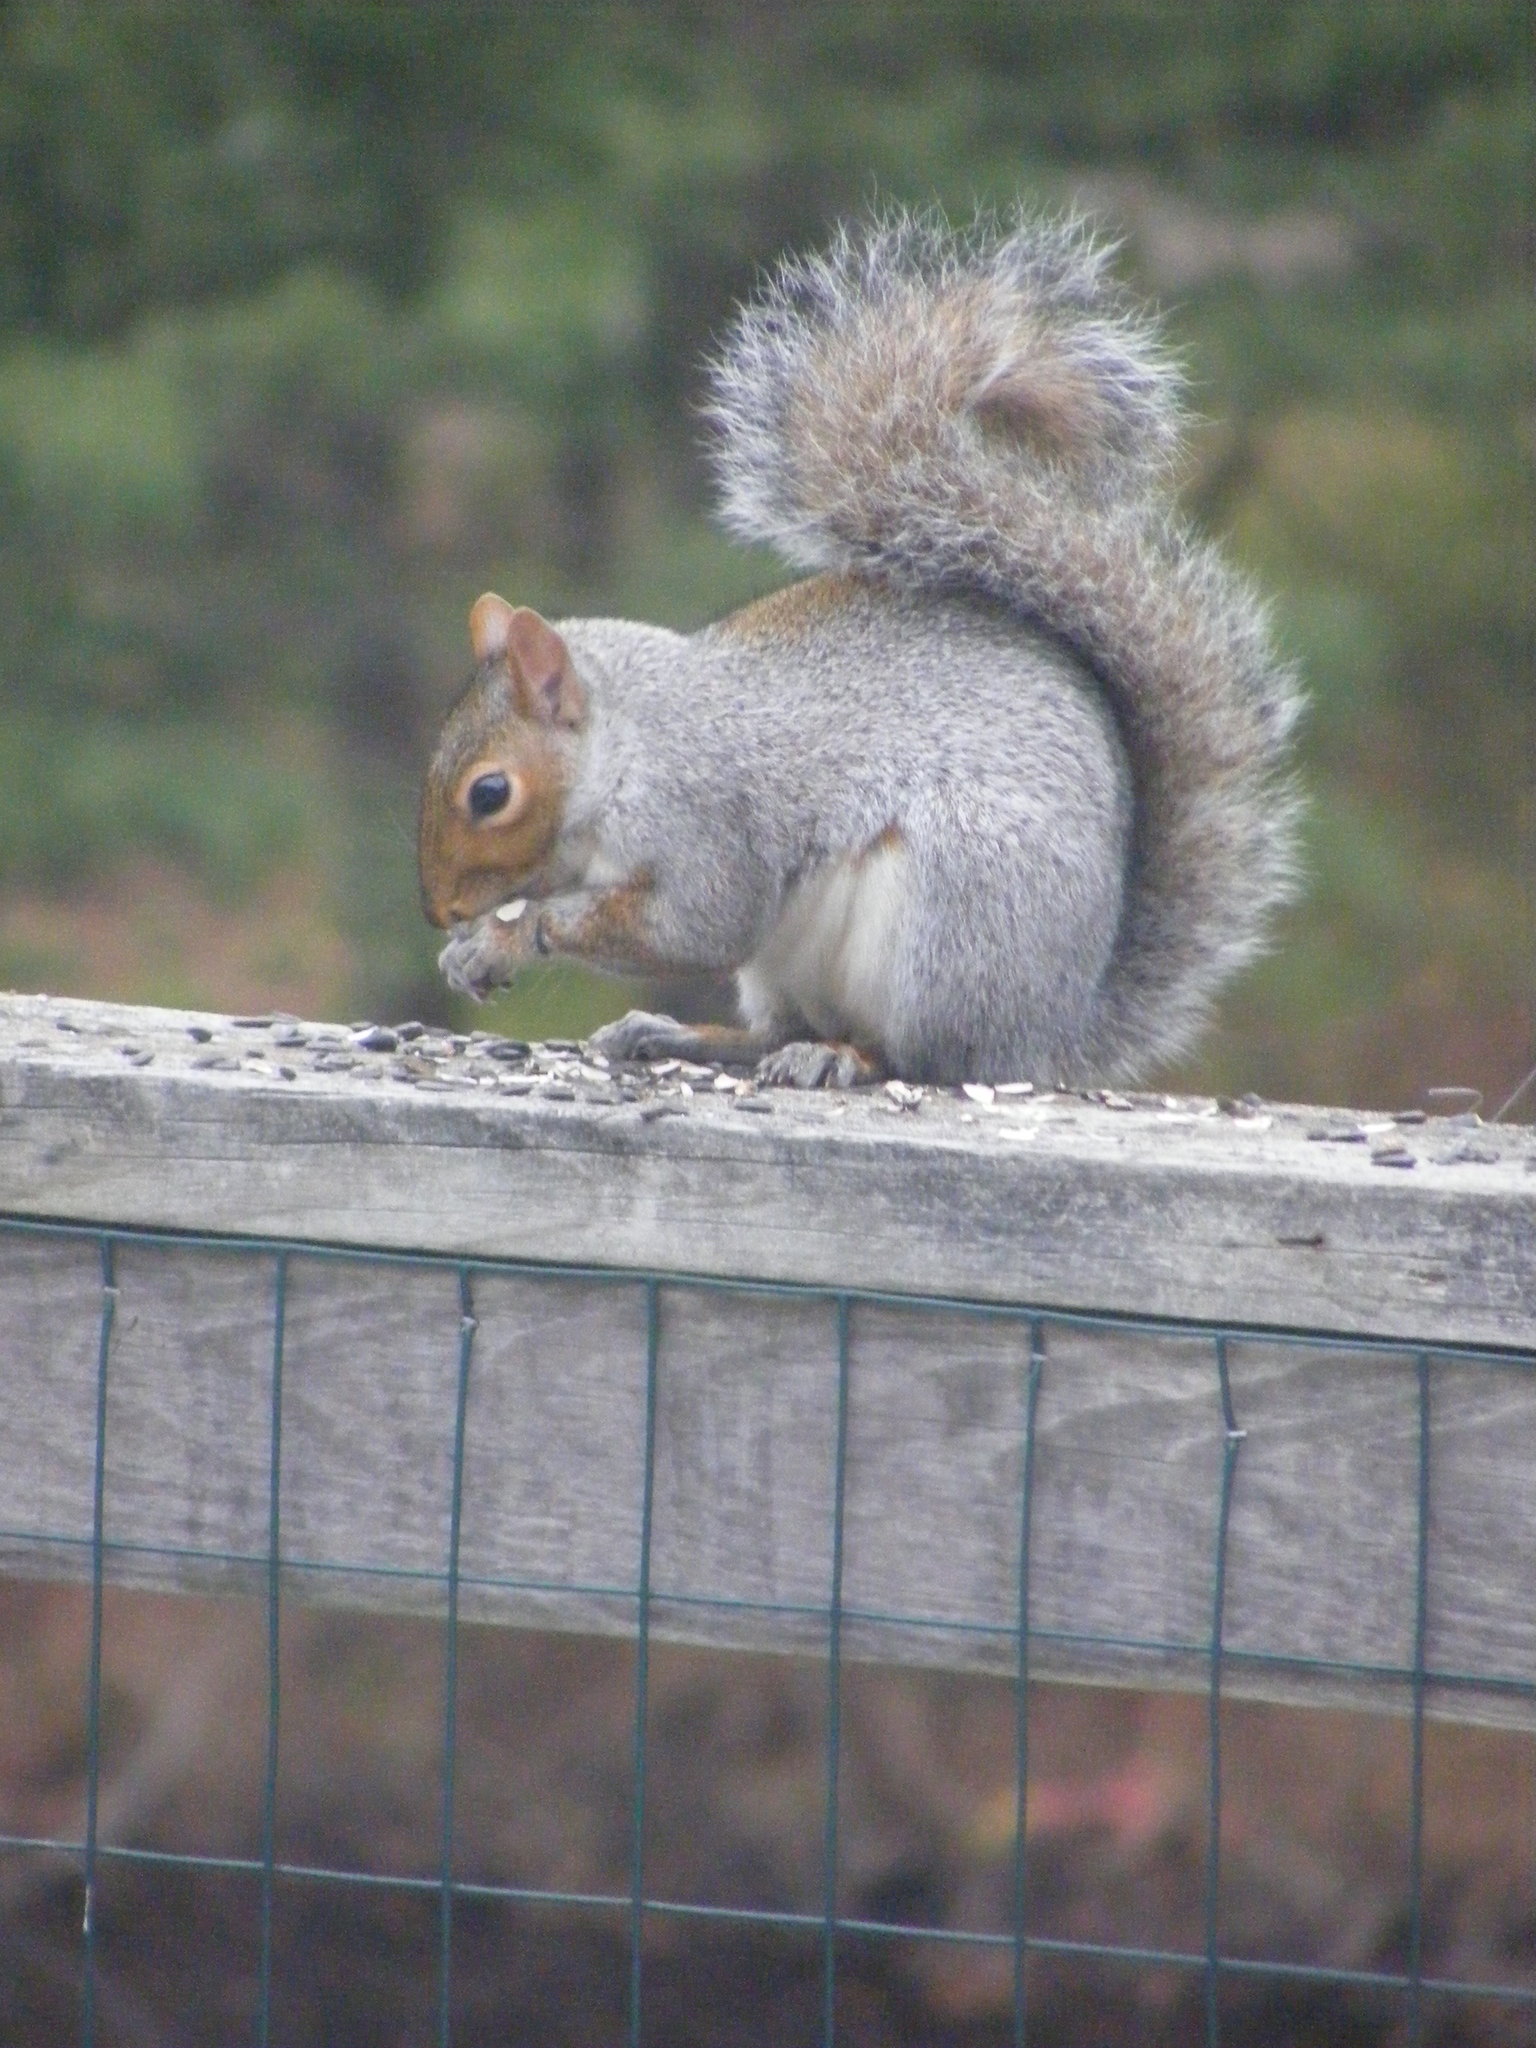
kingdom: Animalia
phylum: Chordata
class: Mammalia
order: Rodentia
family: Sciuridae
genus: Sciurus
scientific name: Sciurus carolinensis
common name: Eastern gray squirrel
